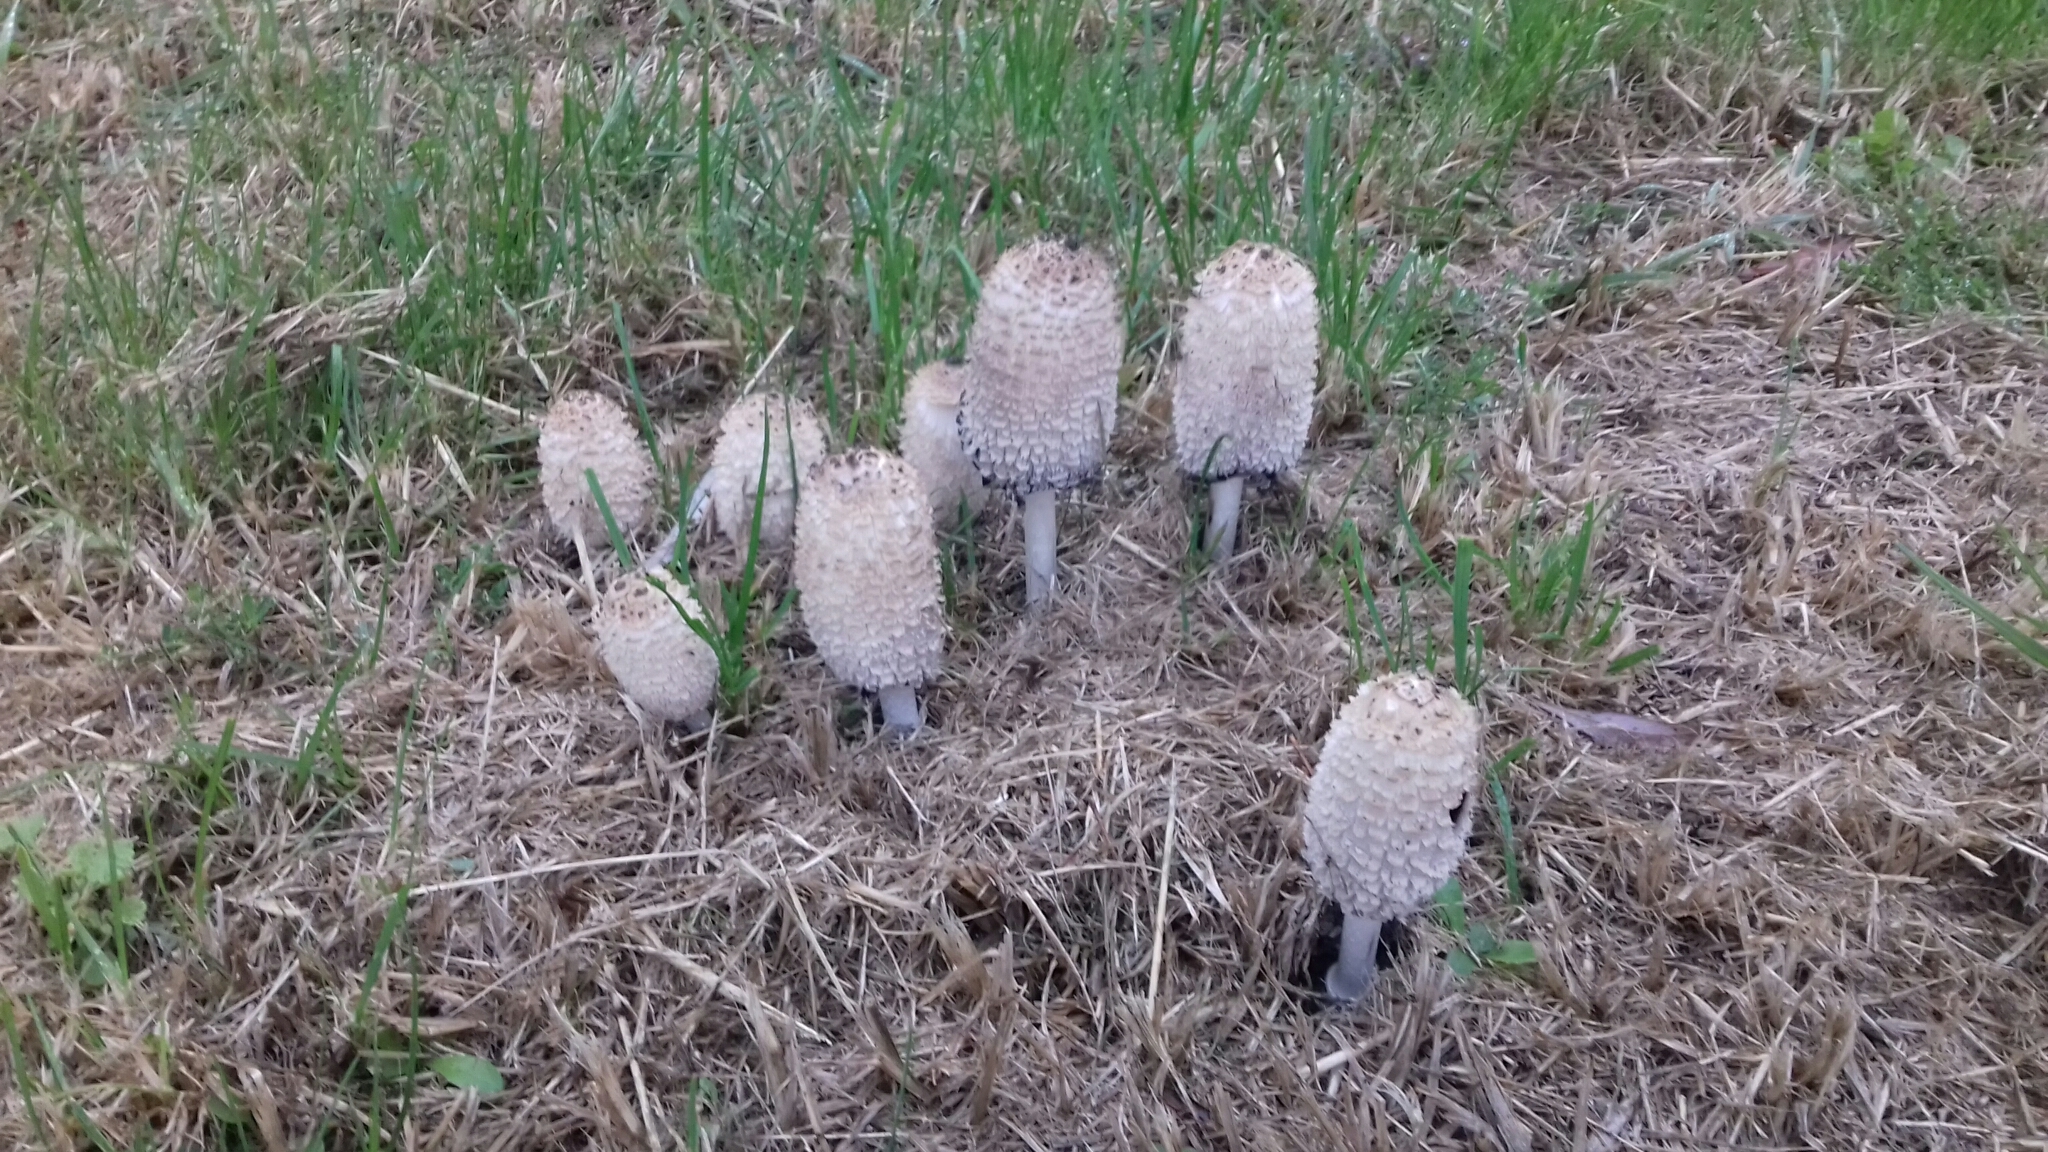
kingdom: Fungi
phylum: Basidiomycota
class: Agaricomycetes
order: Agaricales
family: Agaricaceae
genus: Coprinus
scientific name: Coprinus comatus
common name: Lawyer's wig
